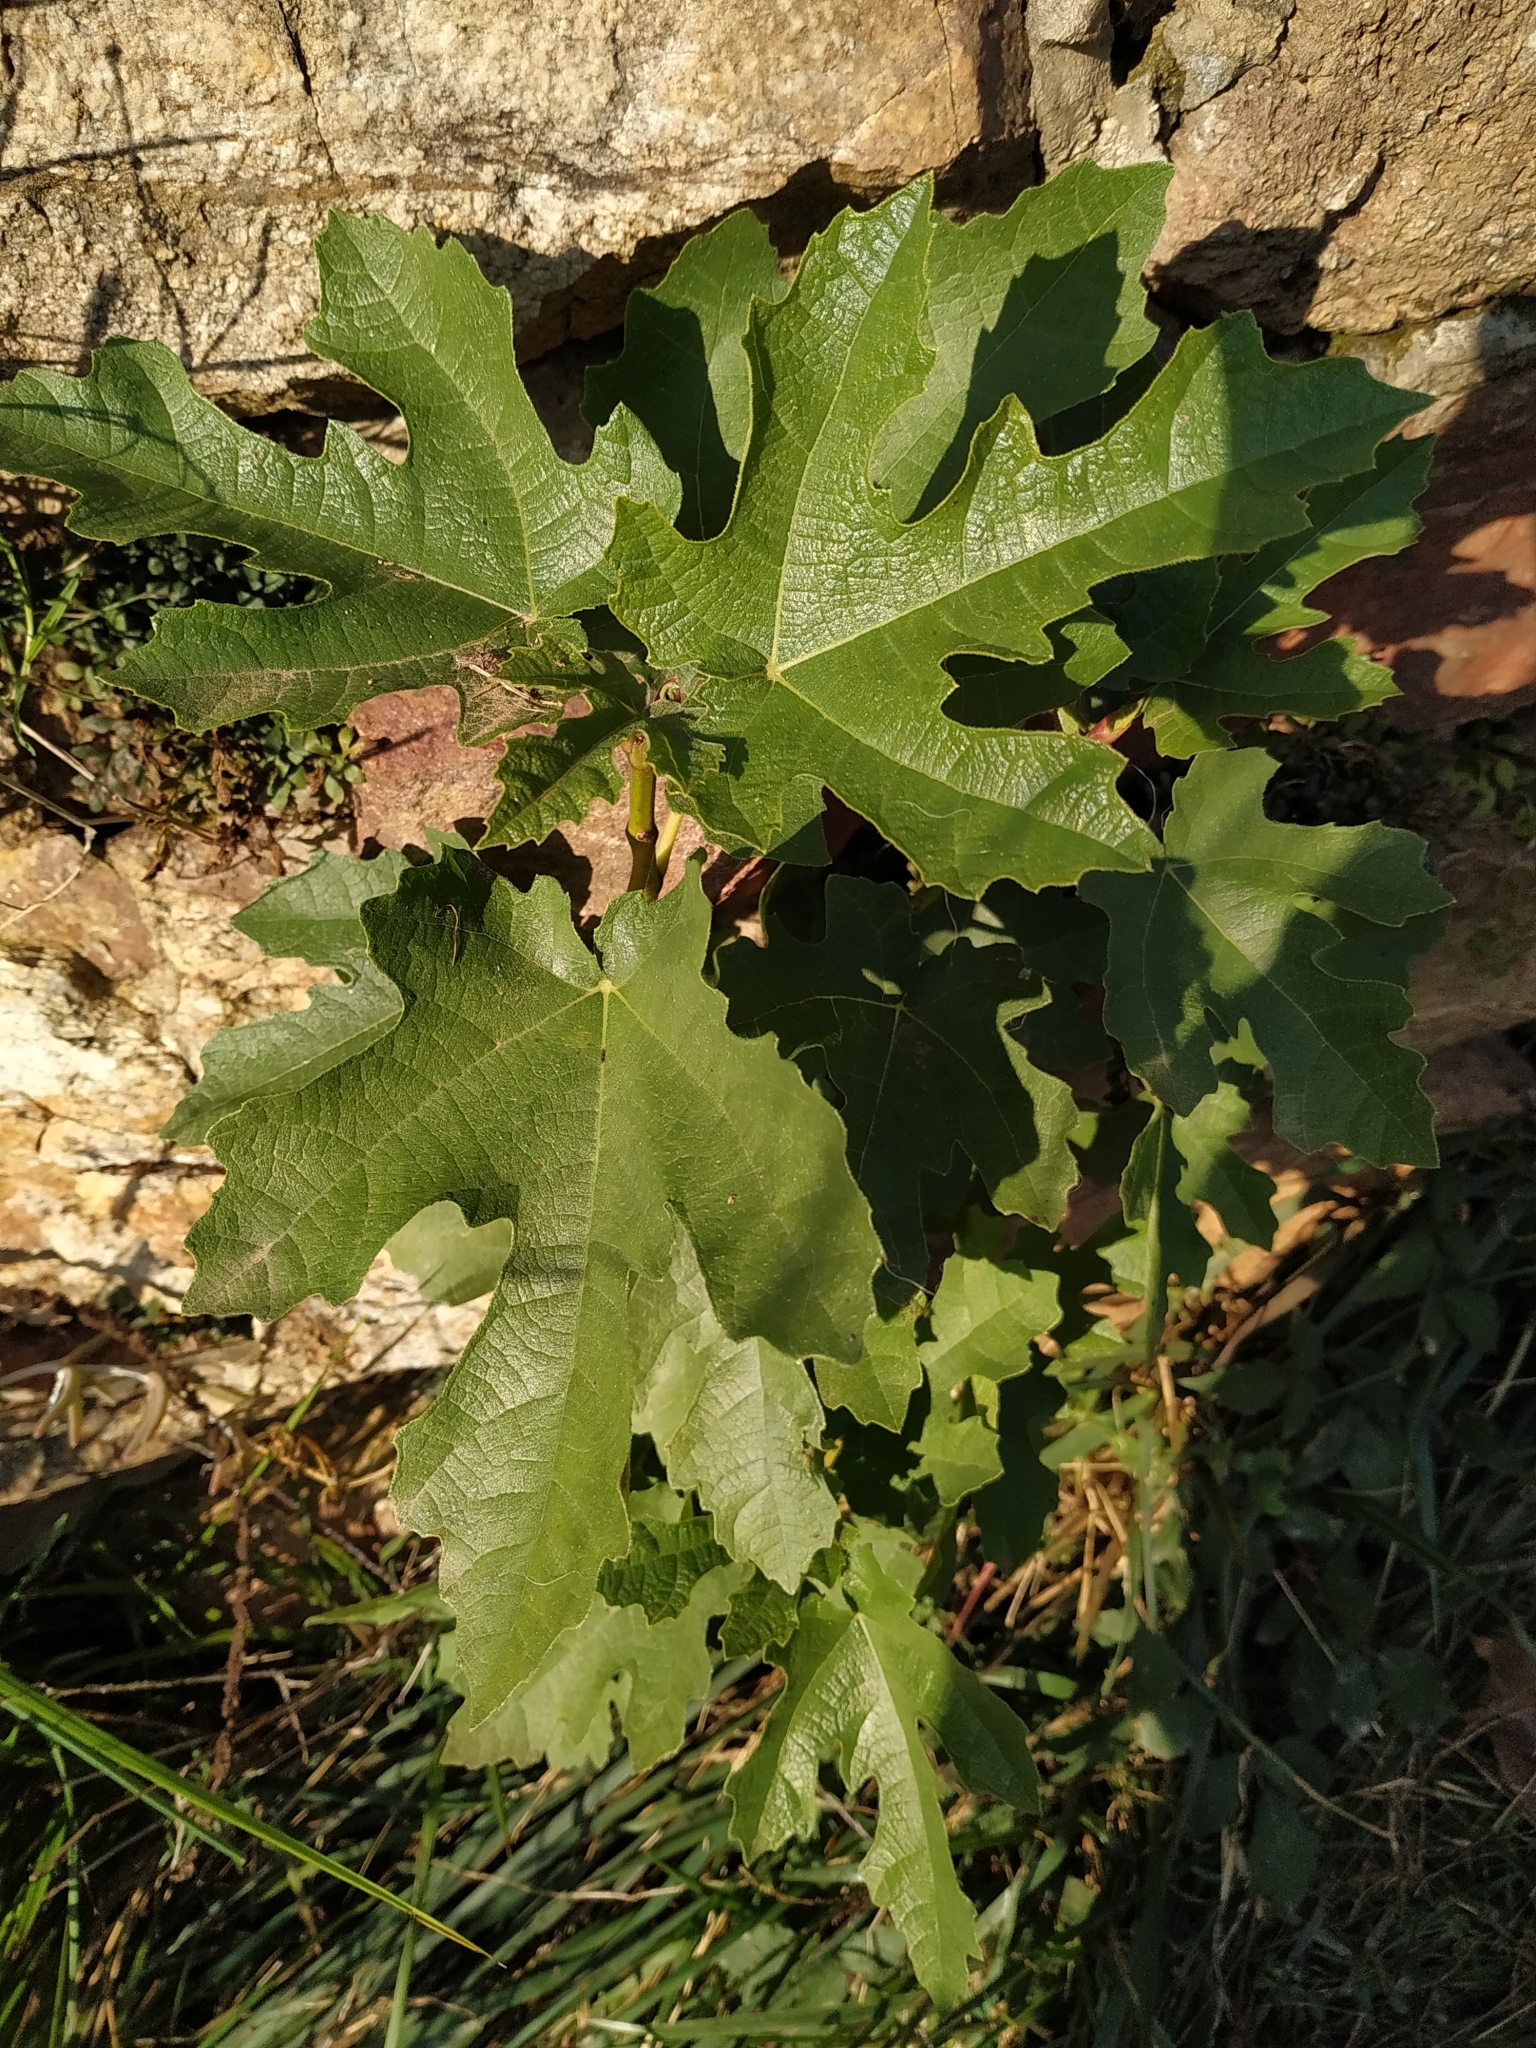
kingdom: Plantae
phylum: Tracheophyta
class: Magnoliopsida
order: Rosales
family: Moraceae
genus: Ficus
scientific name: Ficus carica
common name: Fig
